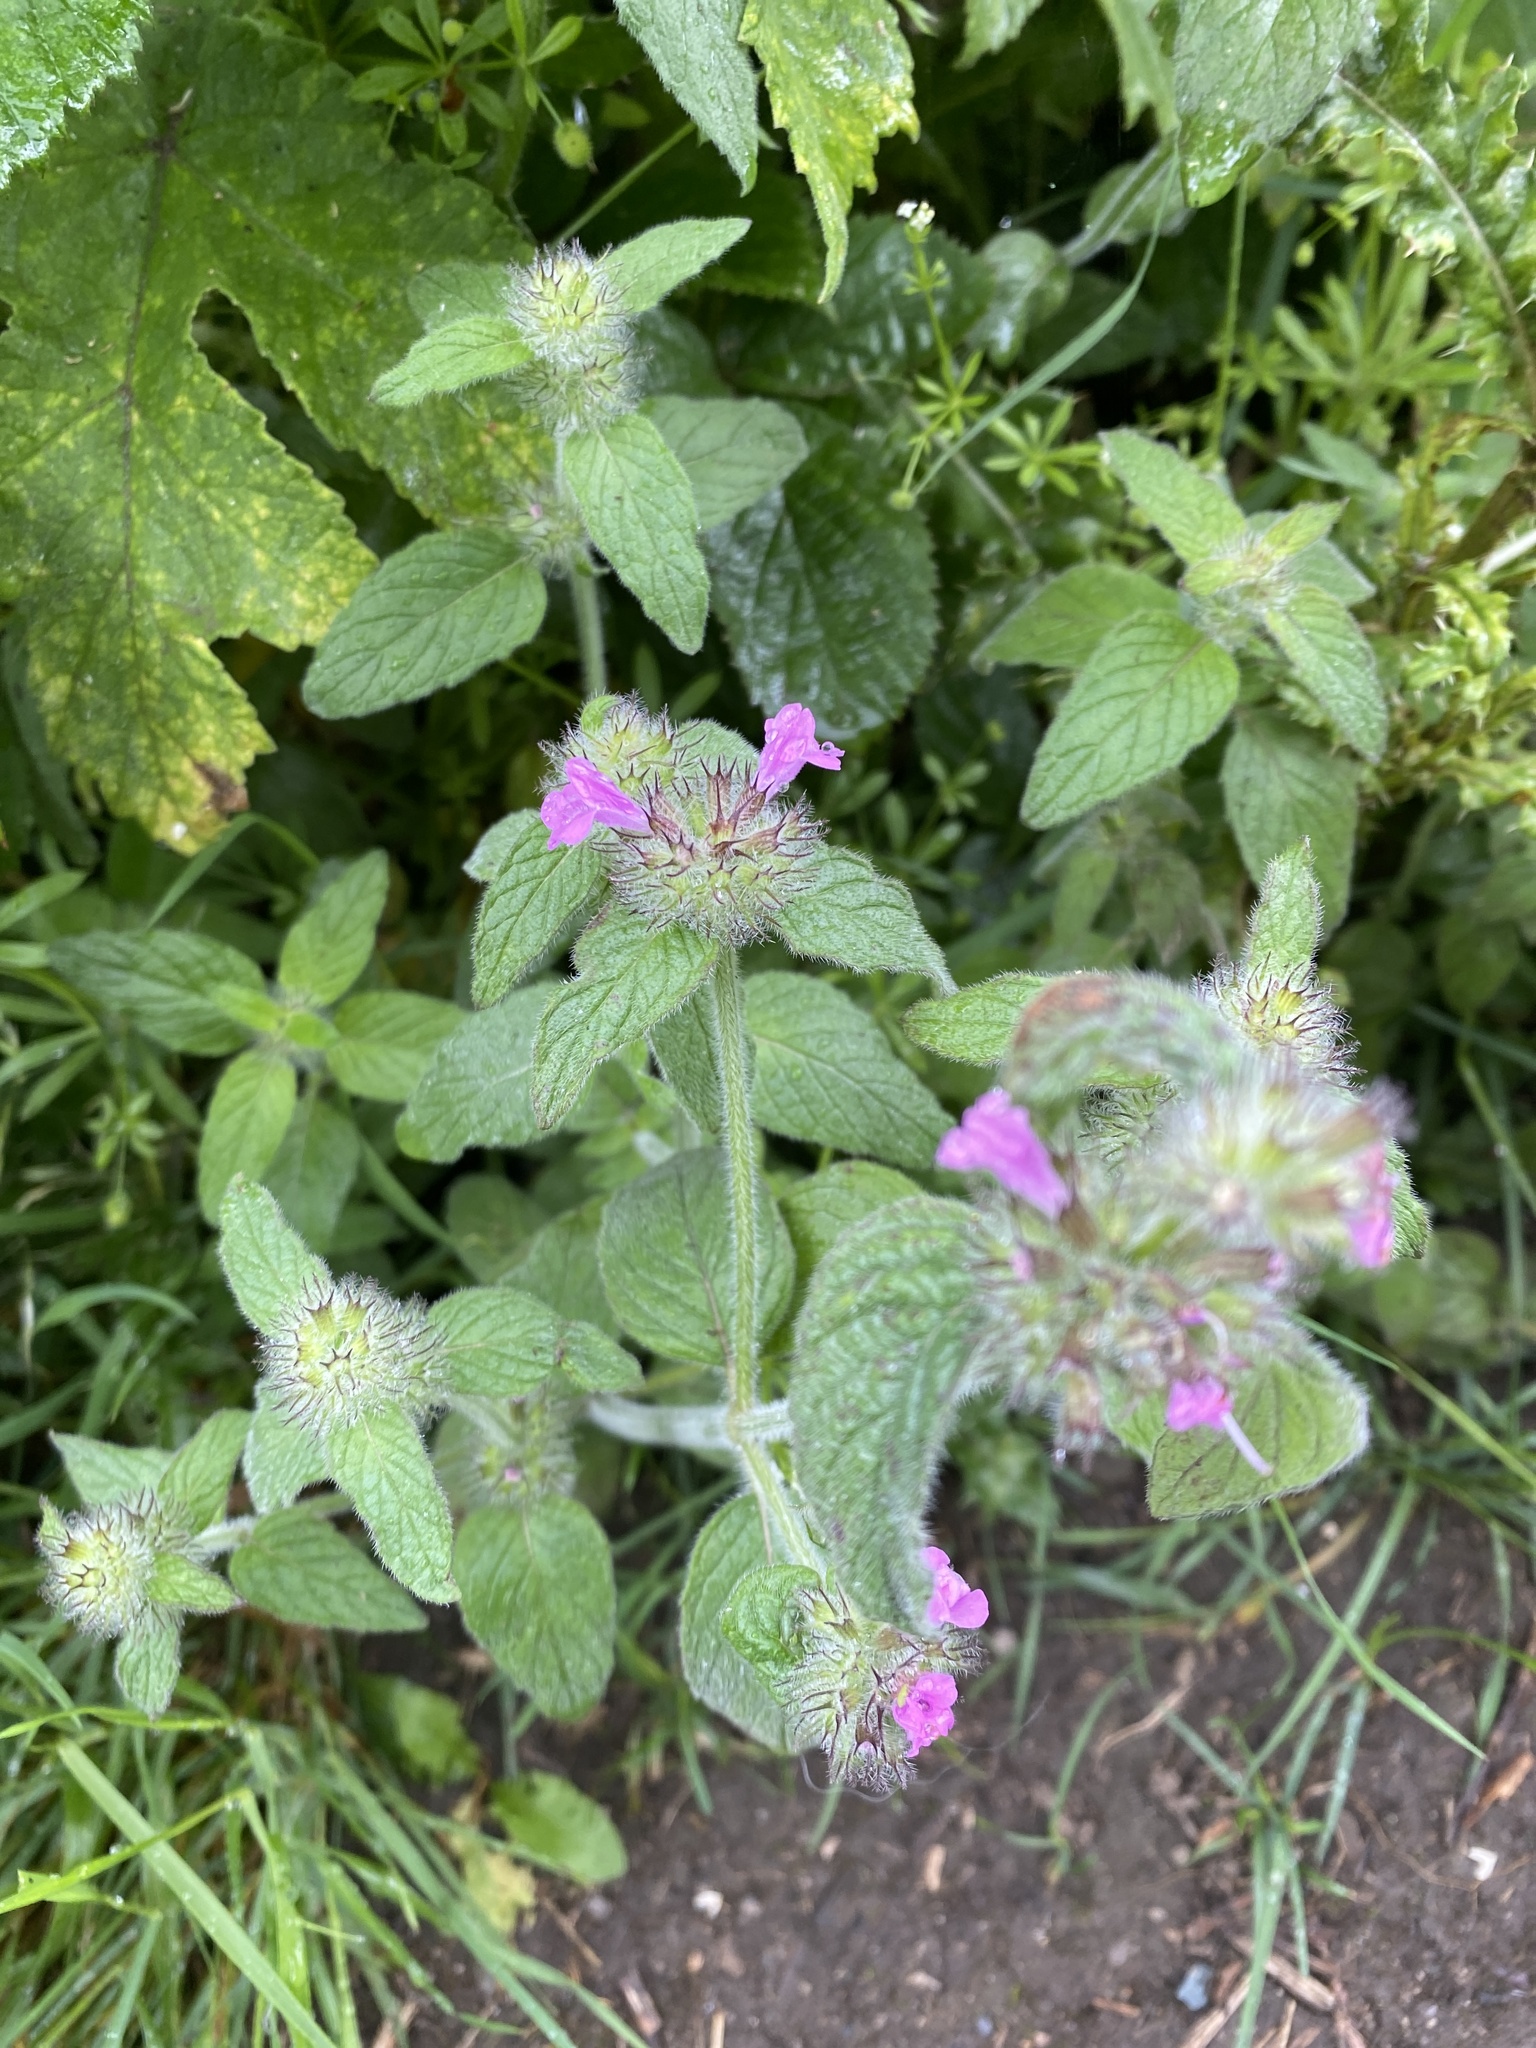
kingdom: Plantae
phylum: Tracheophyta
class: Magnoliopsida
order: Lamiales
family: Lamiaceae
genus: Clinopodium
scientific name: Clinopodium vulgare
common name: Wild basil
